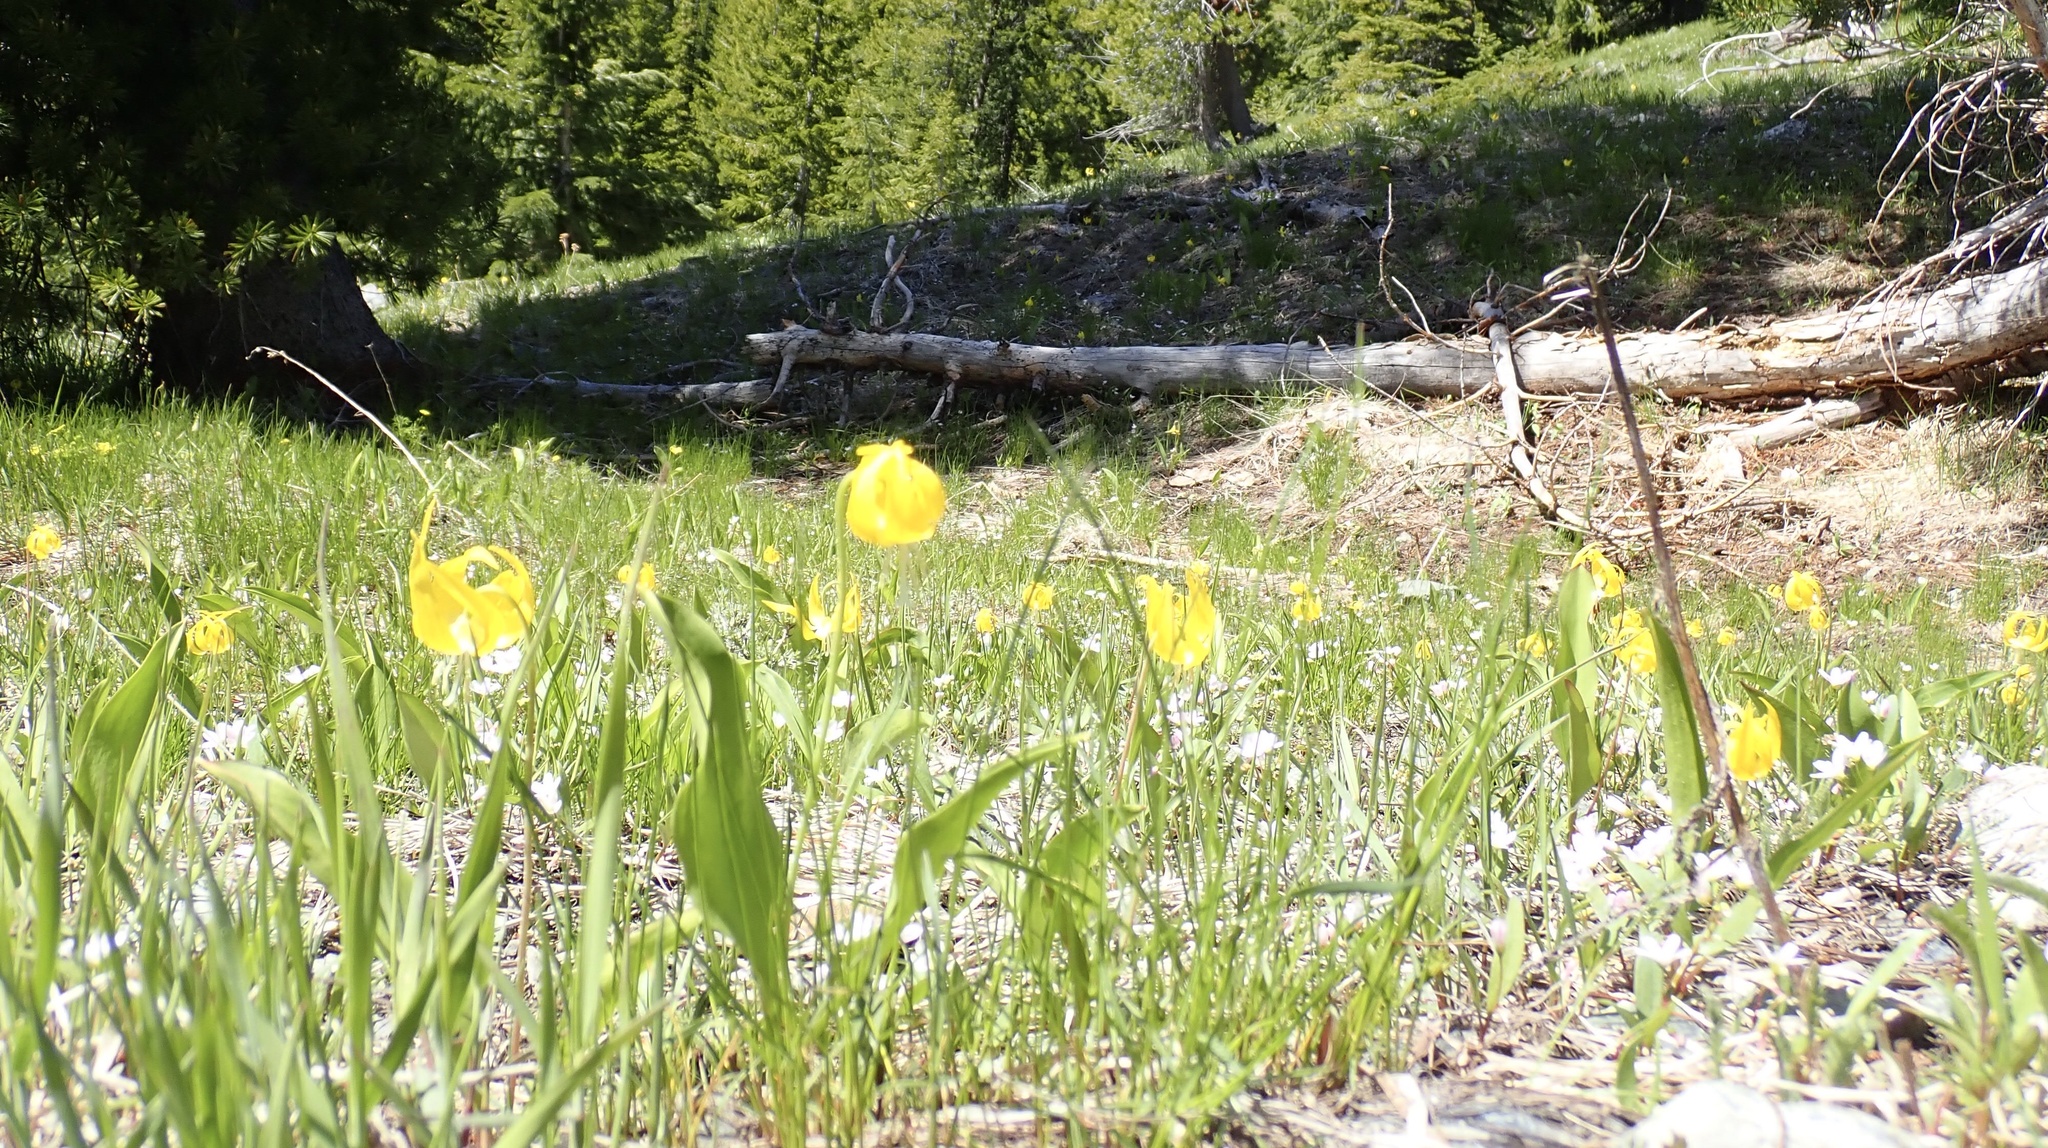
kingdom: Plantae
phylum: Tracheophyta
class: Liliopsida
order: Liliales
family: Liliaceae
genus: Erythronium
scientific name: Erythronium grandiflorum
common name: Avalanche-lily
